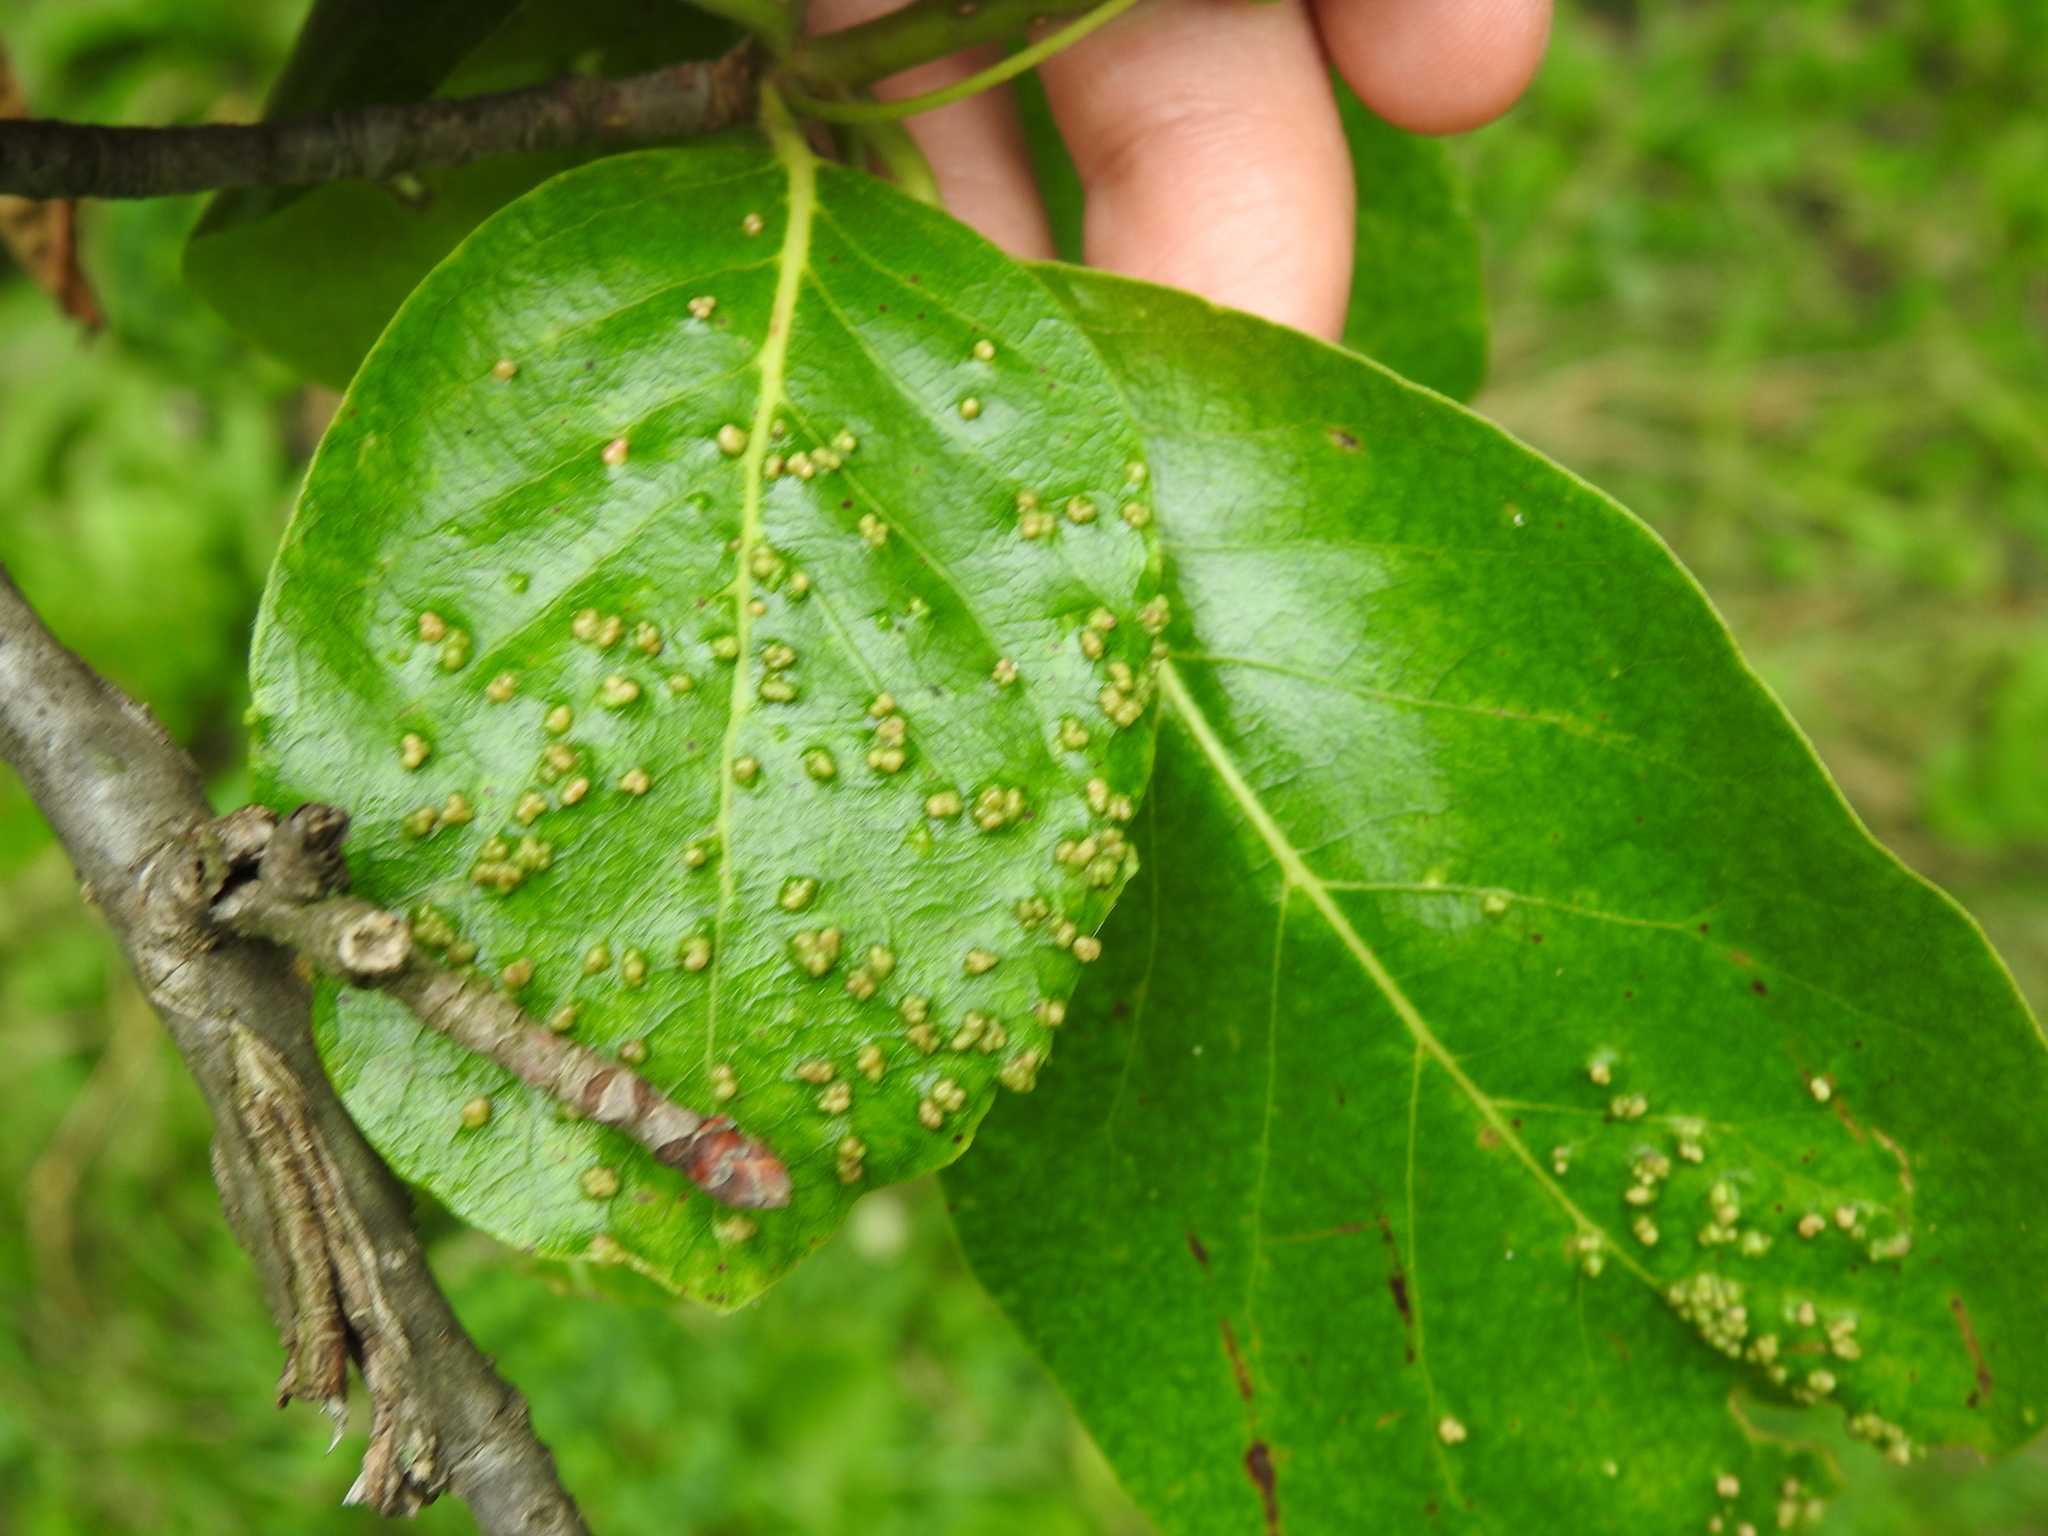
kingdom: Animalia
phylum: Arthropoda
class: Arachnida
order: Trombidiformes
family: Eriophyidae
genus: Aceria
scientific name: Aceria
